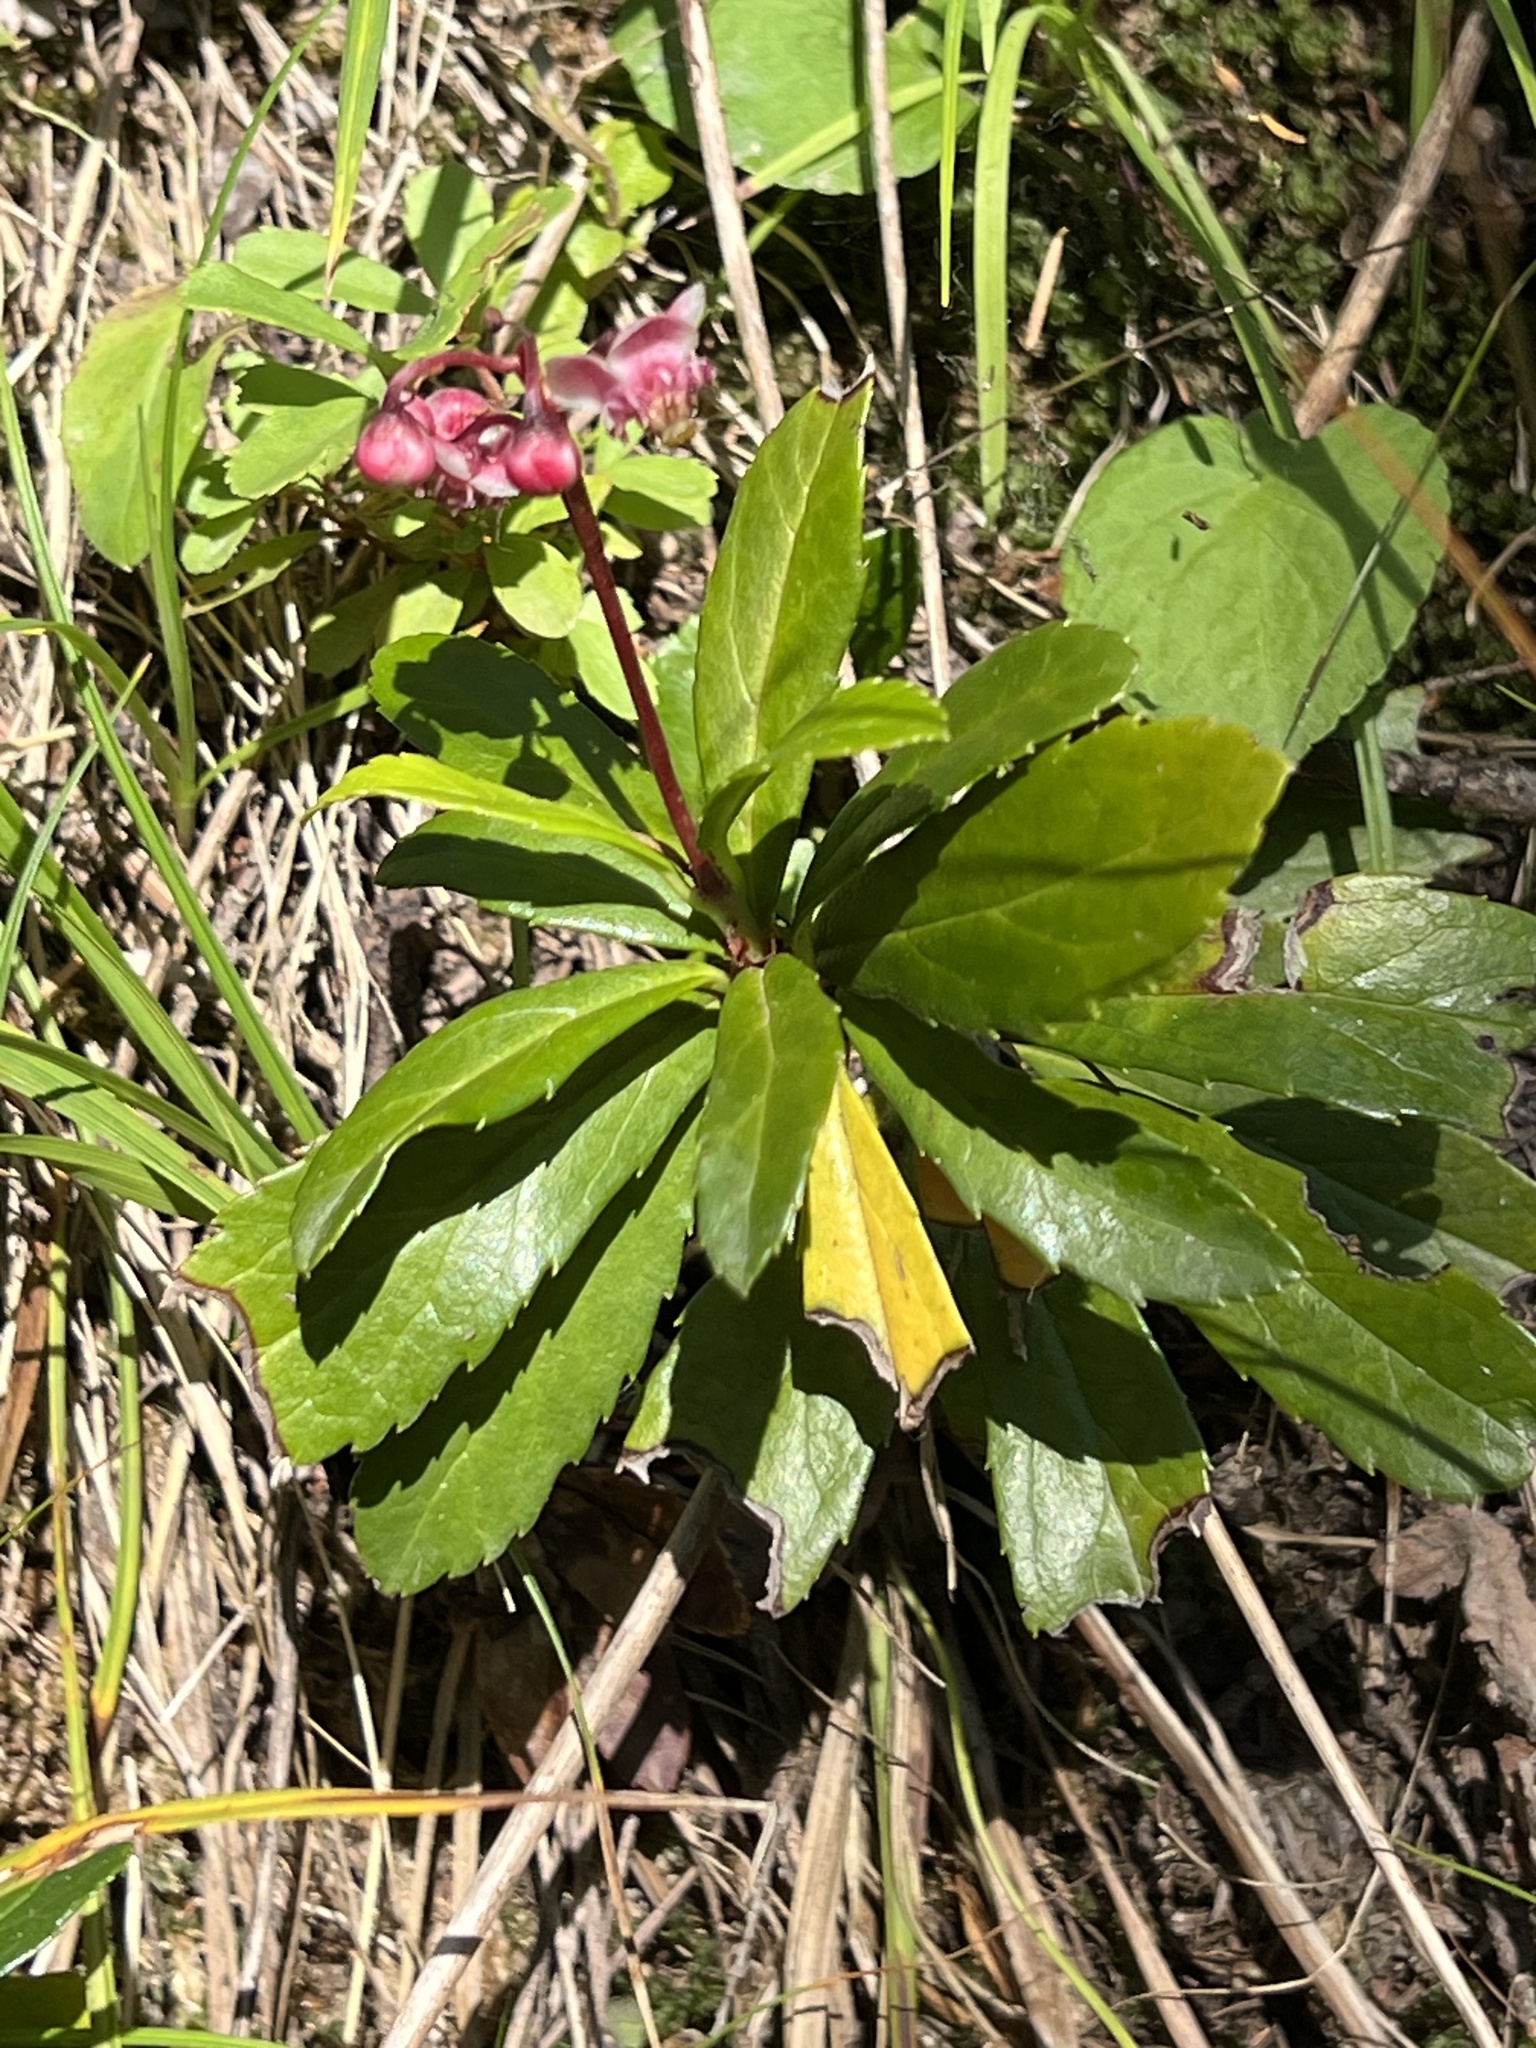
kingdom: Plantae
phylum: Tracheophyta
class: Magnoliopsida
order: Ericales
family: Ericaceae
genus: Chimaphila
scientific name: Chimaphila umbellata
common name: Pipsissewa
